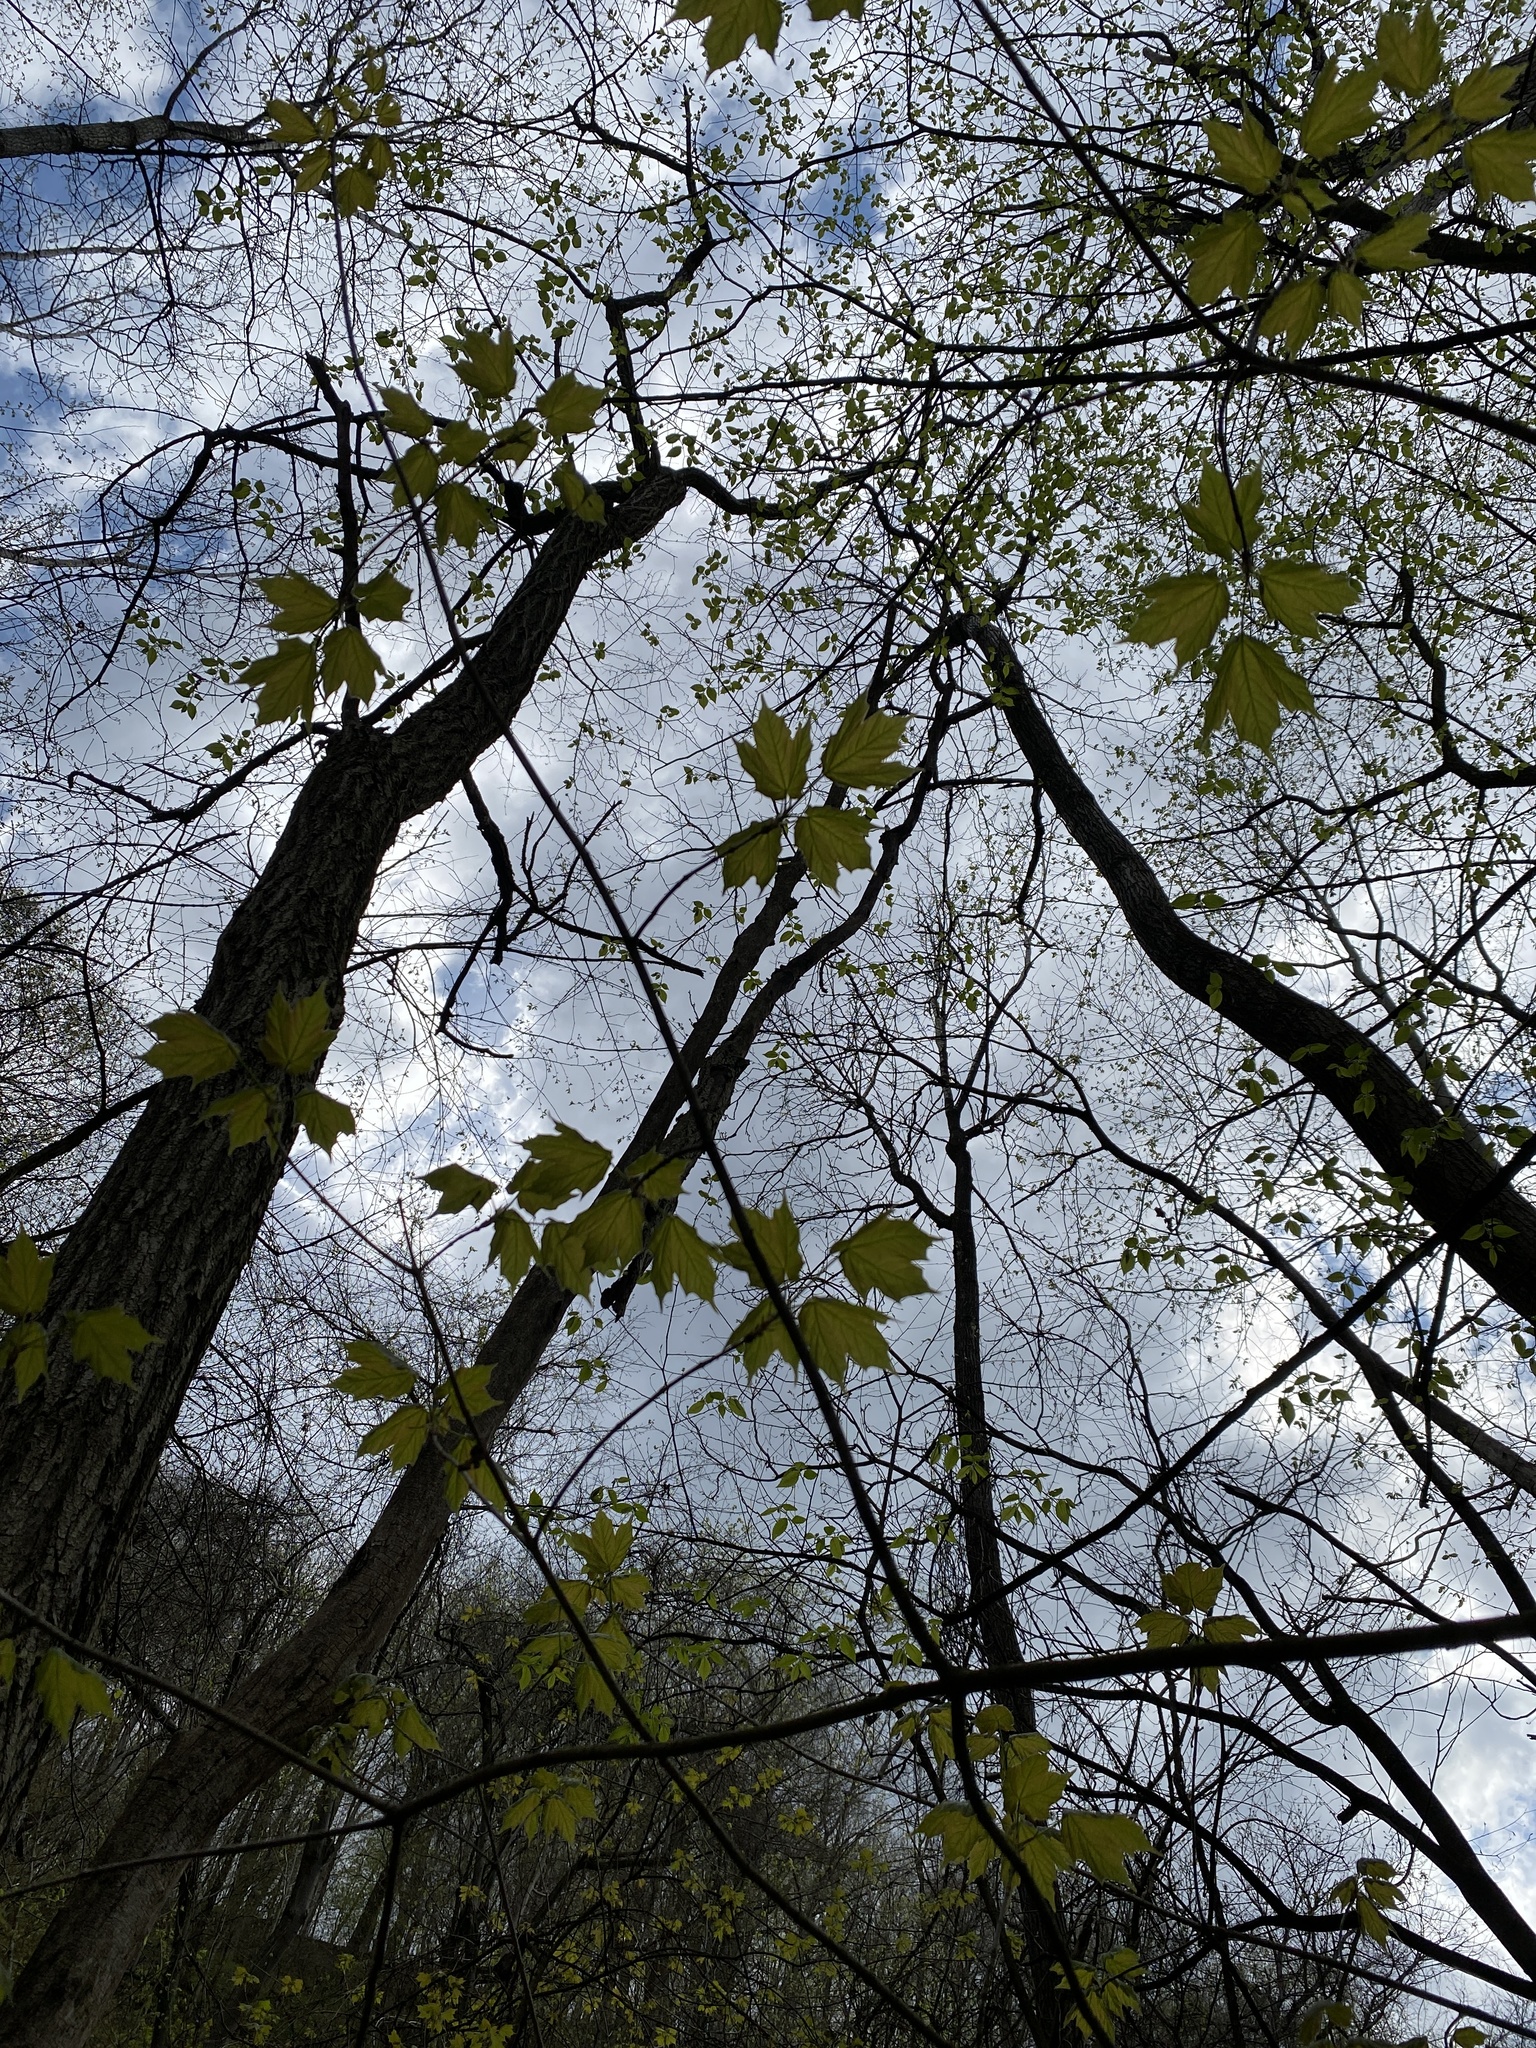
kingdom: Plantae
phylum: Tracheophyta
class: Magnoliopsida
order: Sapindales
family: Sapindaceae
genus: Acer
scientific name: Acer nigrum
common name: Black maple
